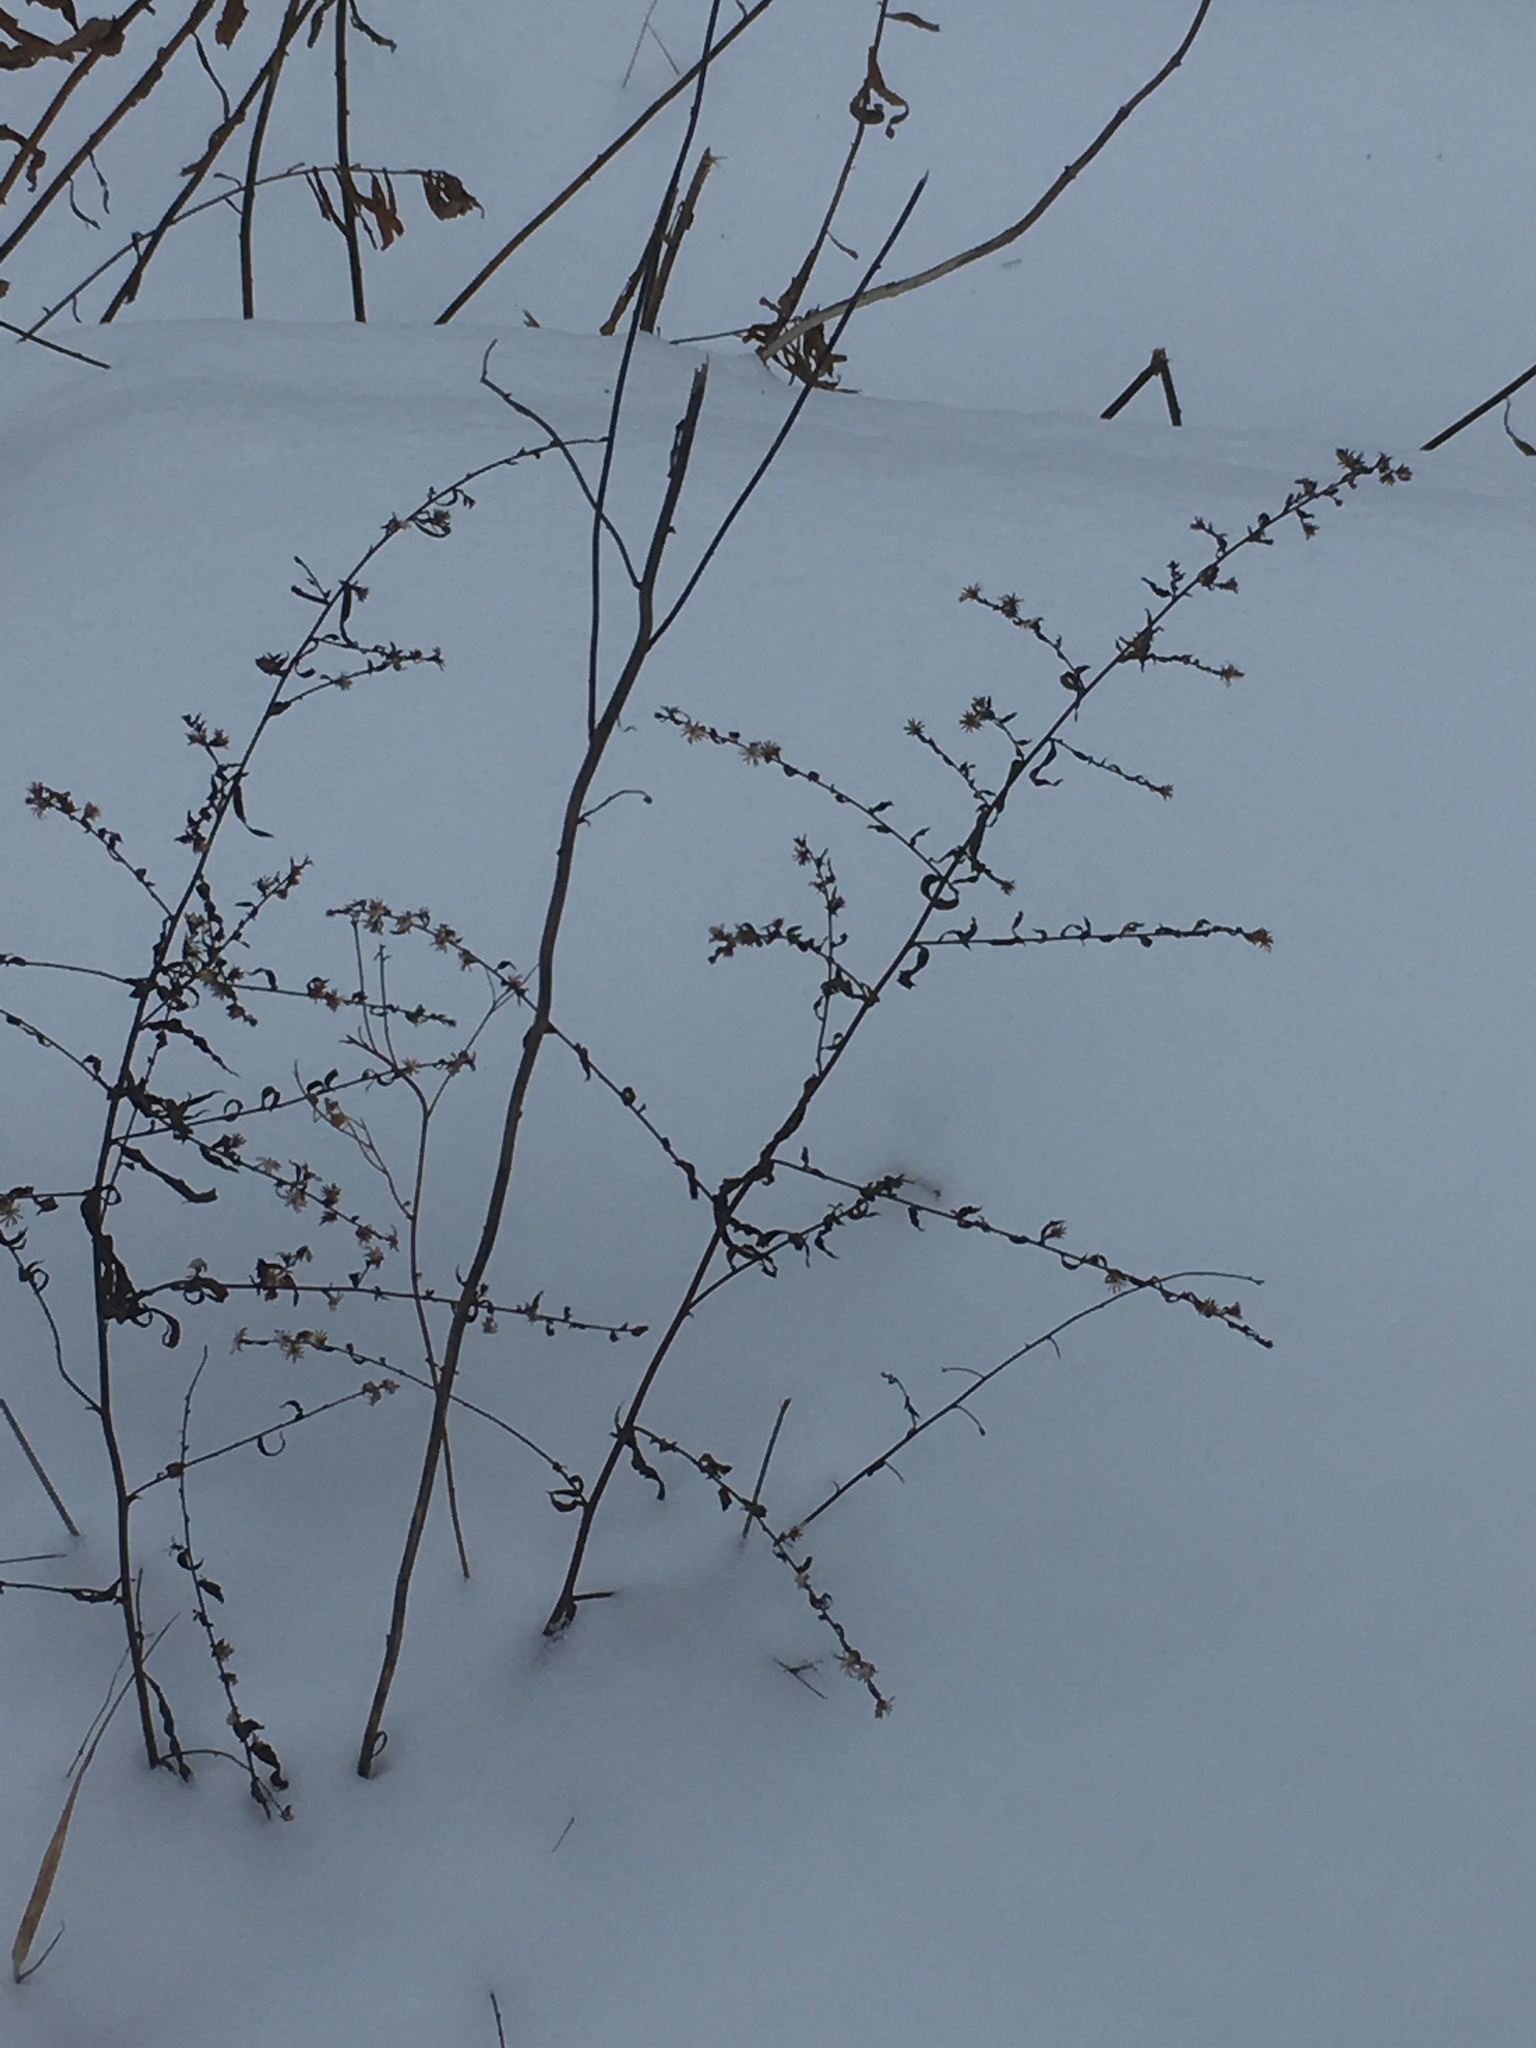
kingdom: Plantae
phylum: Tracheophyta
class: Magnoliopsida
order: Asterales
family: Asteraceae
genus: Symphyotrichum
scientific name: Symphyotrichum lateriflorum
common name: Calico aster
